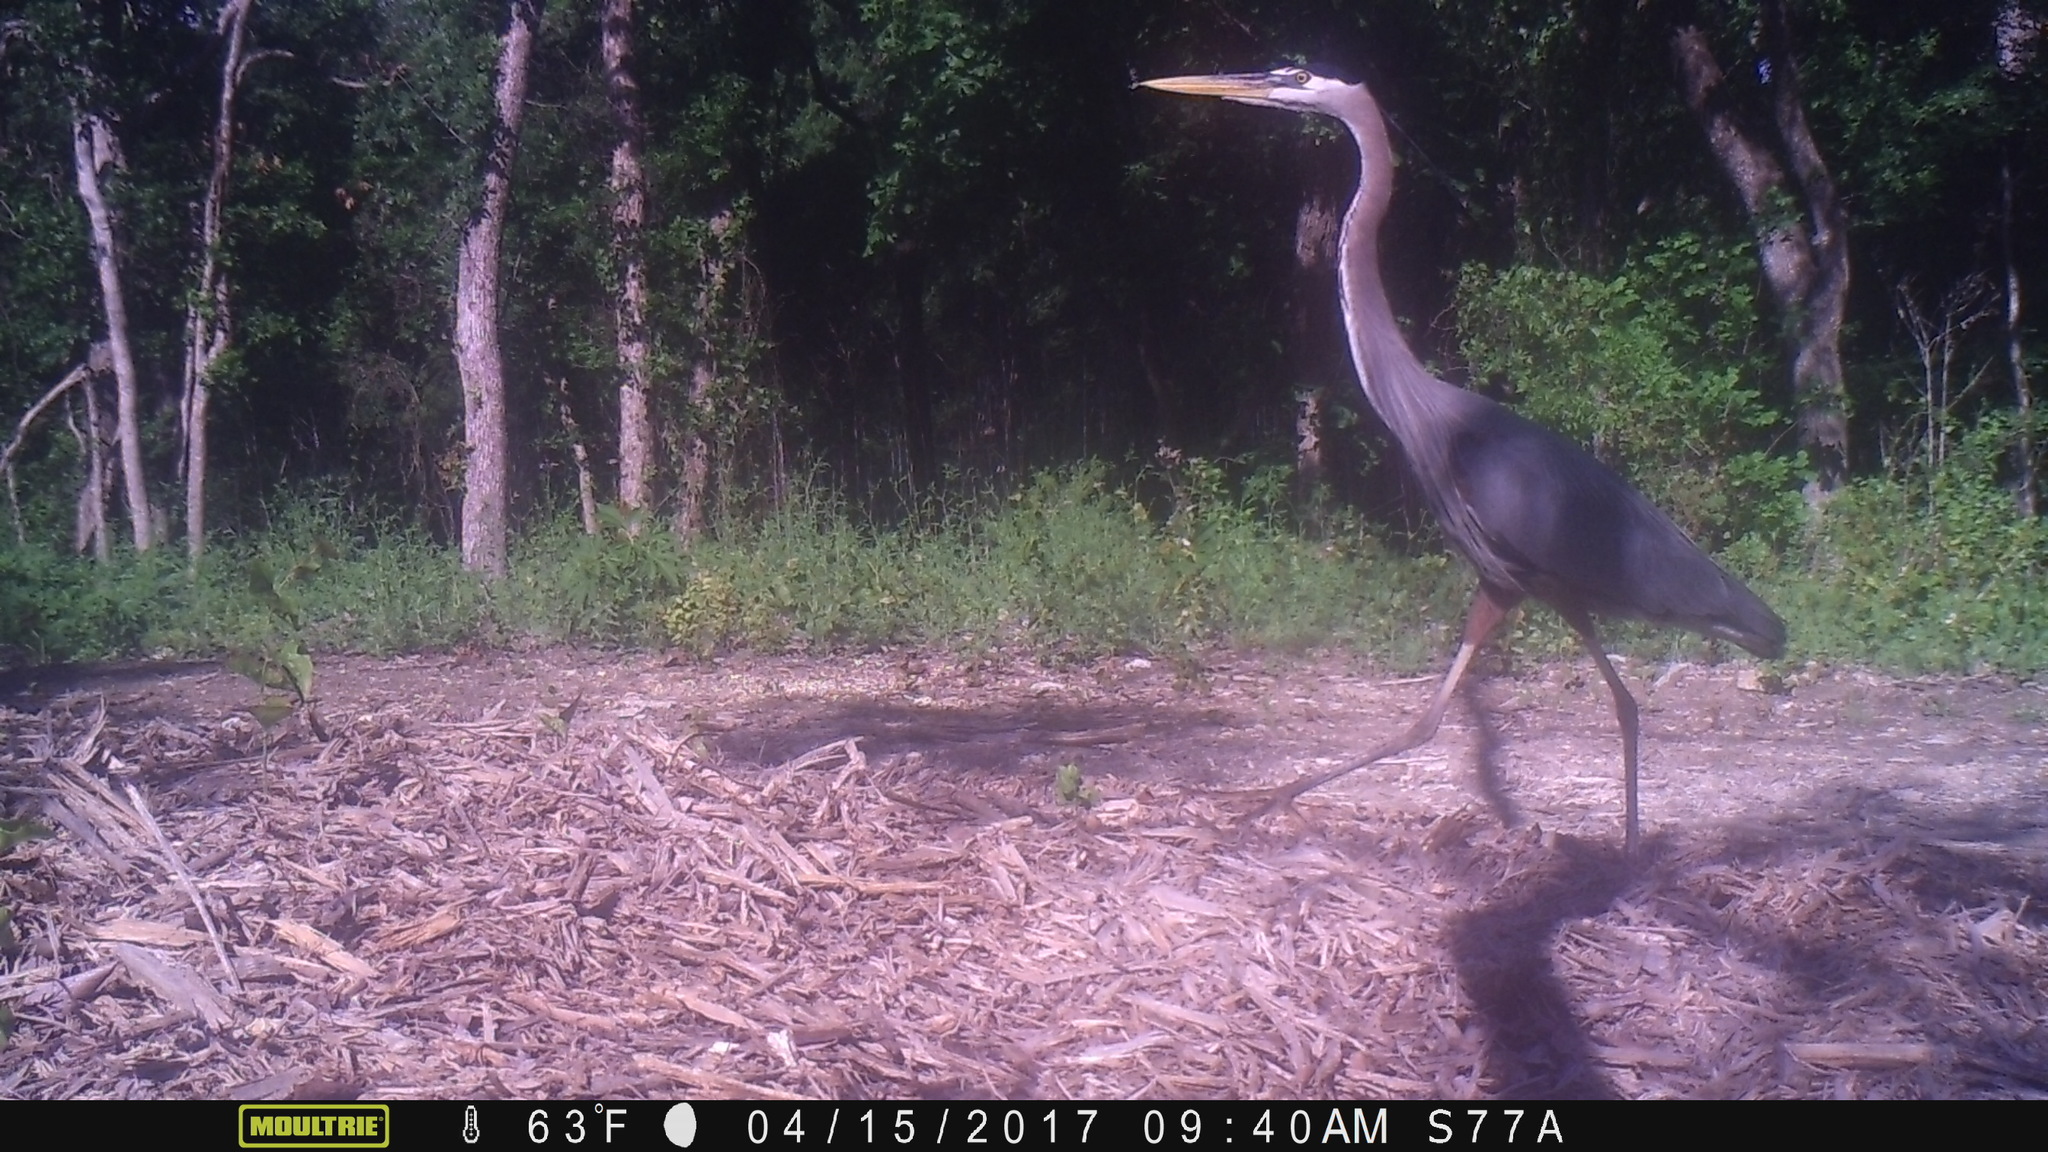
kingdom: Animalia
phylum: Chordata
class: Aves
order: Pelecaniformes
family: Ardeidae
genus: Ardea
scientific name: Ardea herodias
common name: Great blue heron
